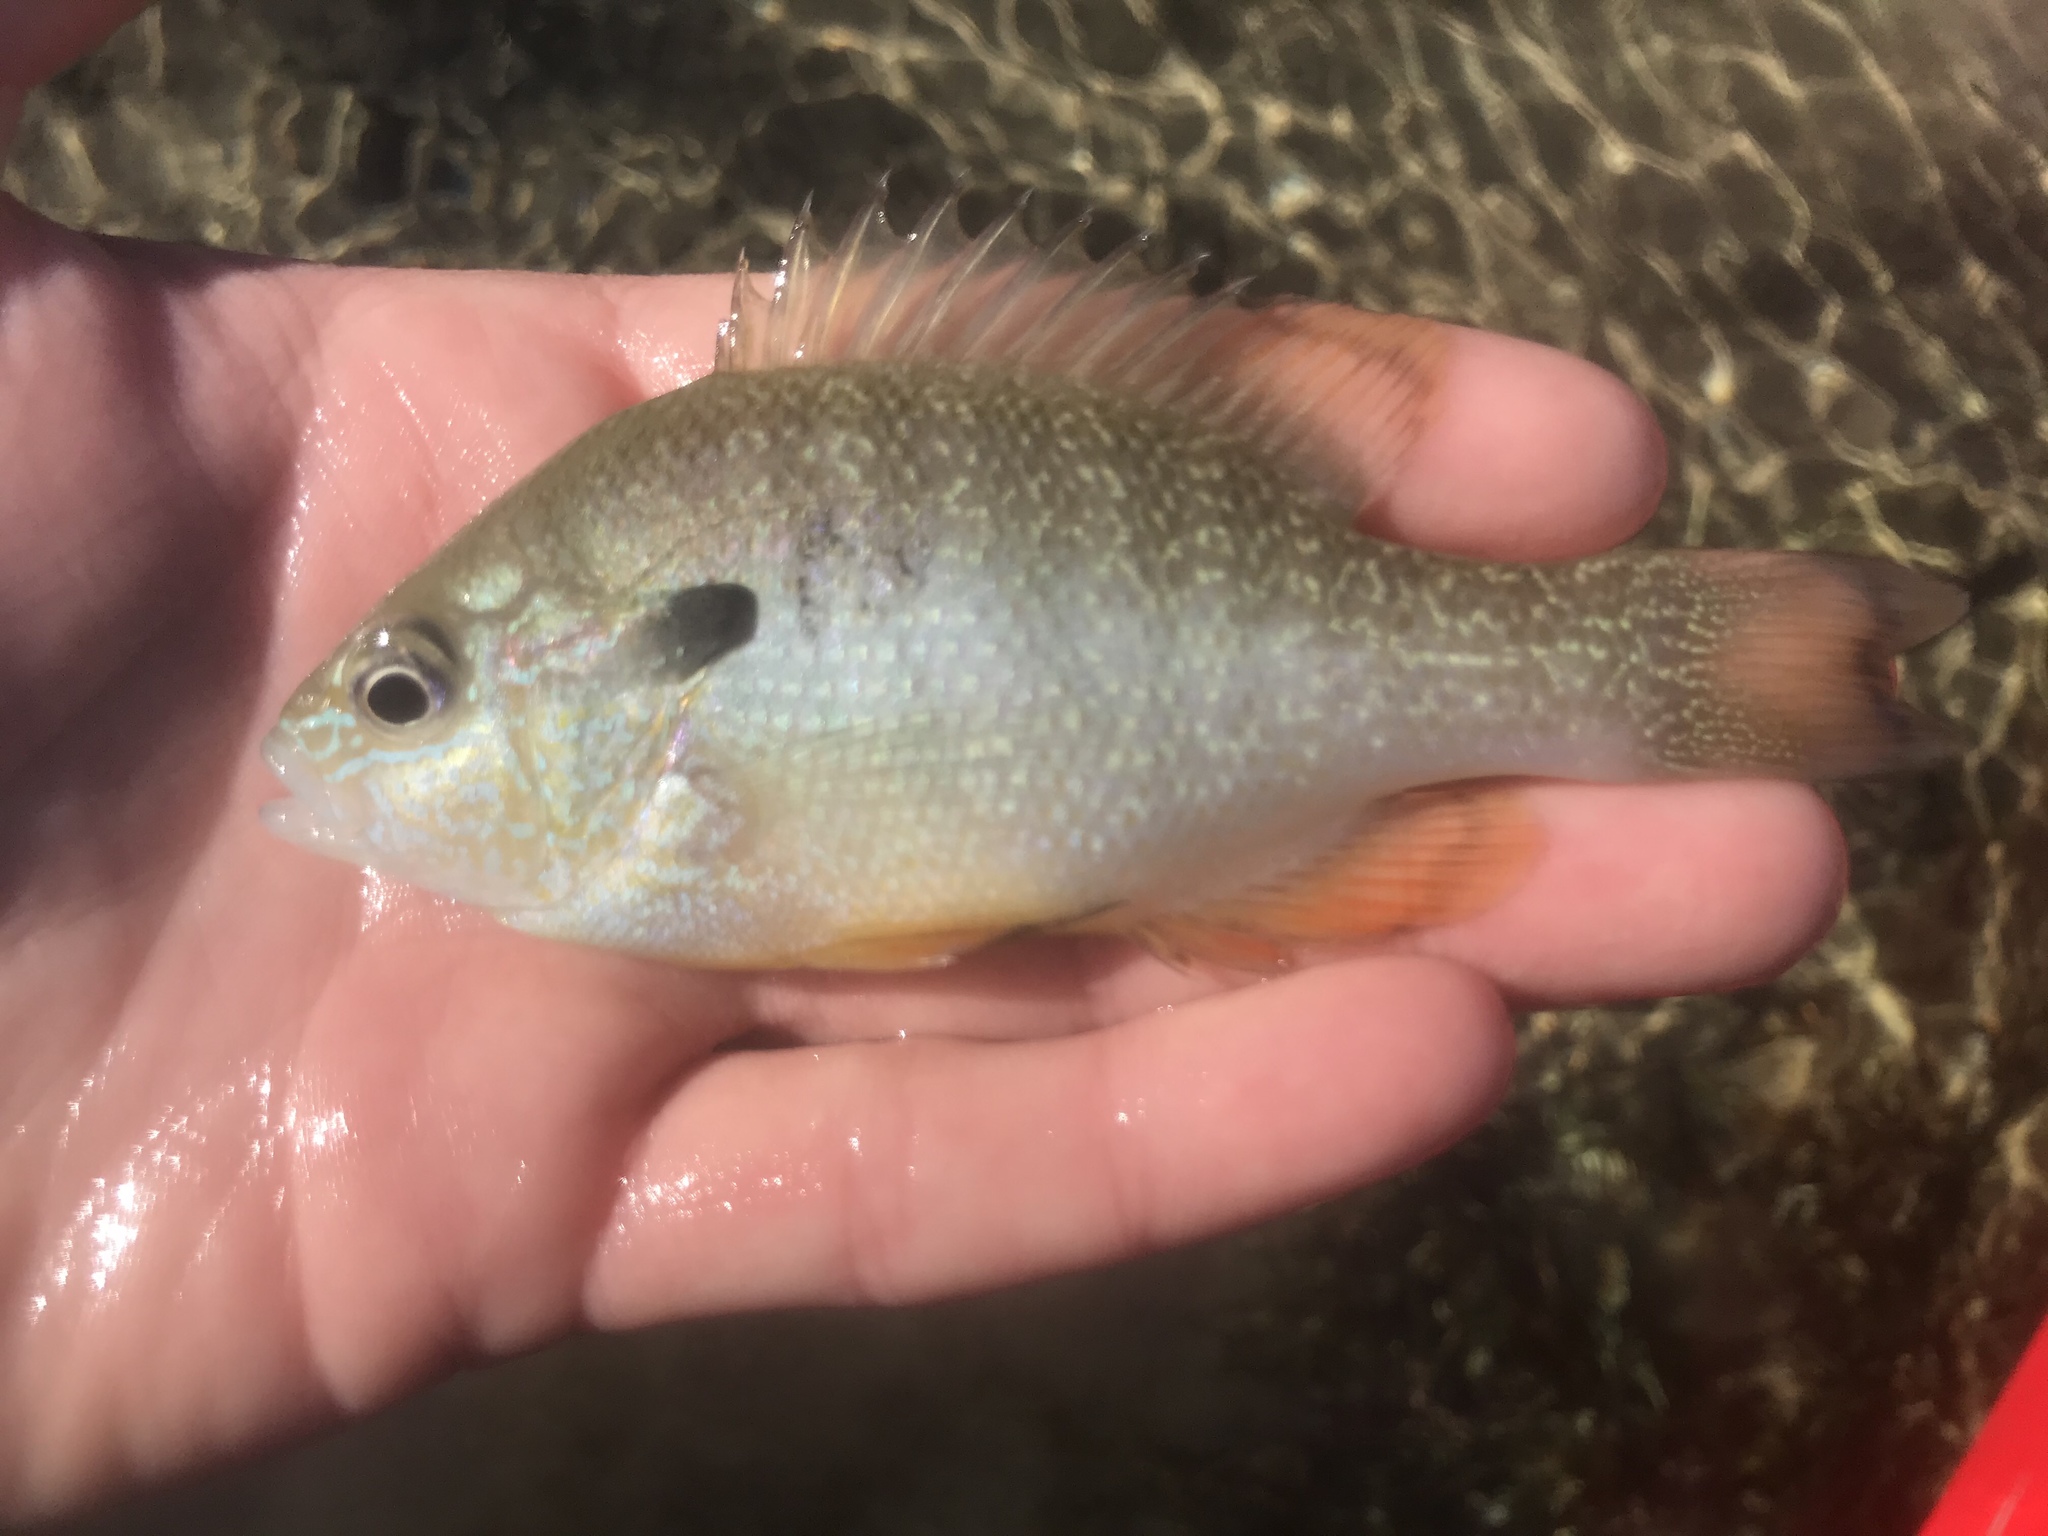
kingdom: Animalia
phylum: Chordata
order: Perciformes
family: Centrarchidae
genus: Lepomis
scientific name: Lepomis megalotis
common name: Longear sunfish
